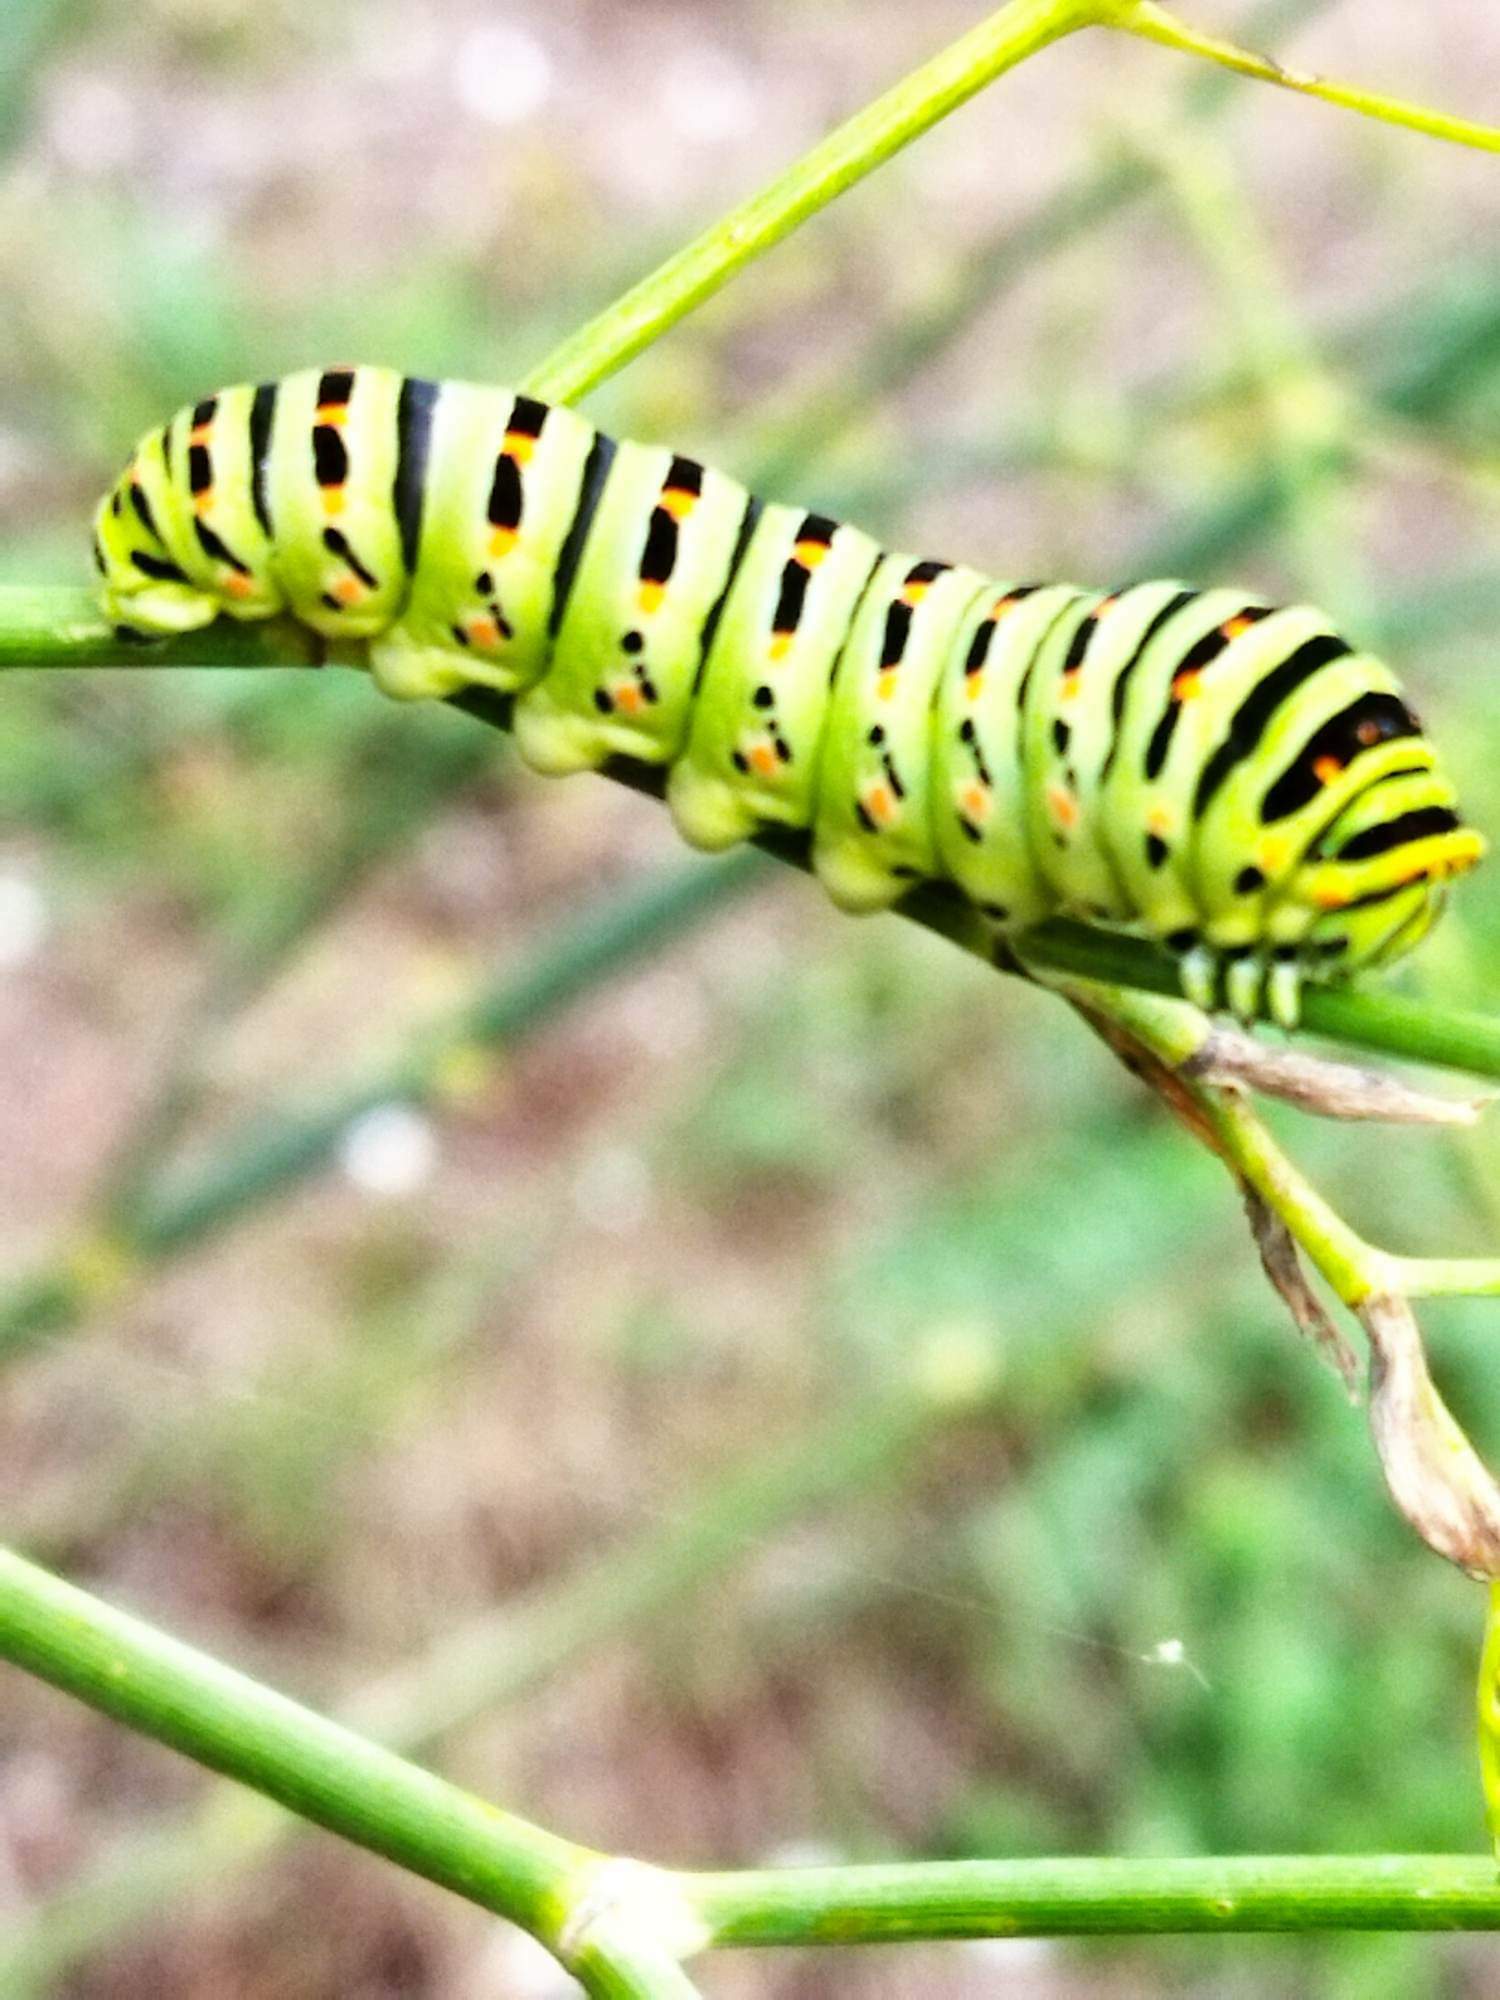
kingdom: Animalia
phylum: Arthropoda
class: Insecta
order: Lepidoptera
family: Papilionidae
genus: Papilio
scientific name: Papilio machaon
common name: Swallowtail
